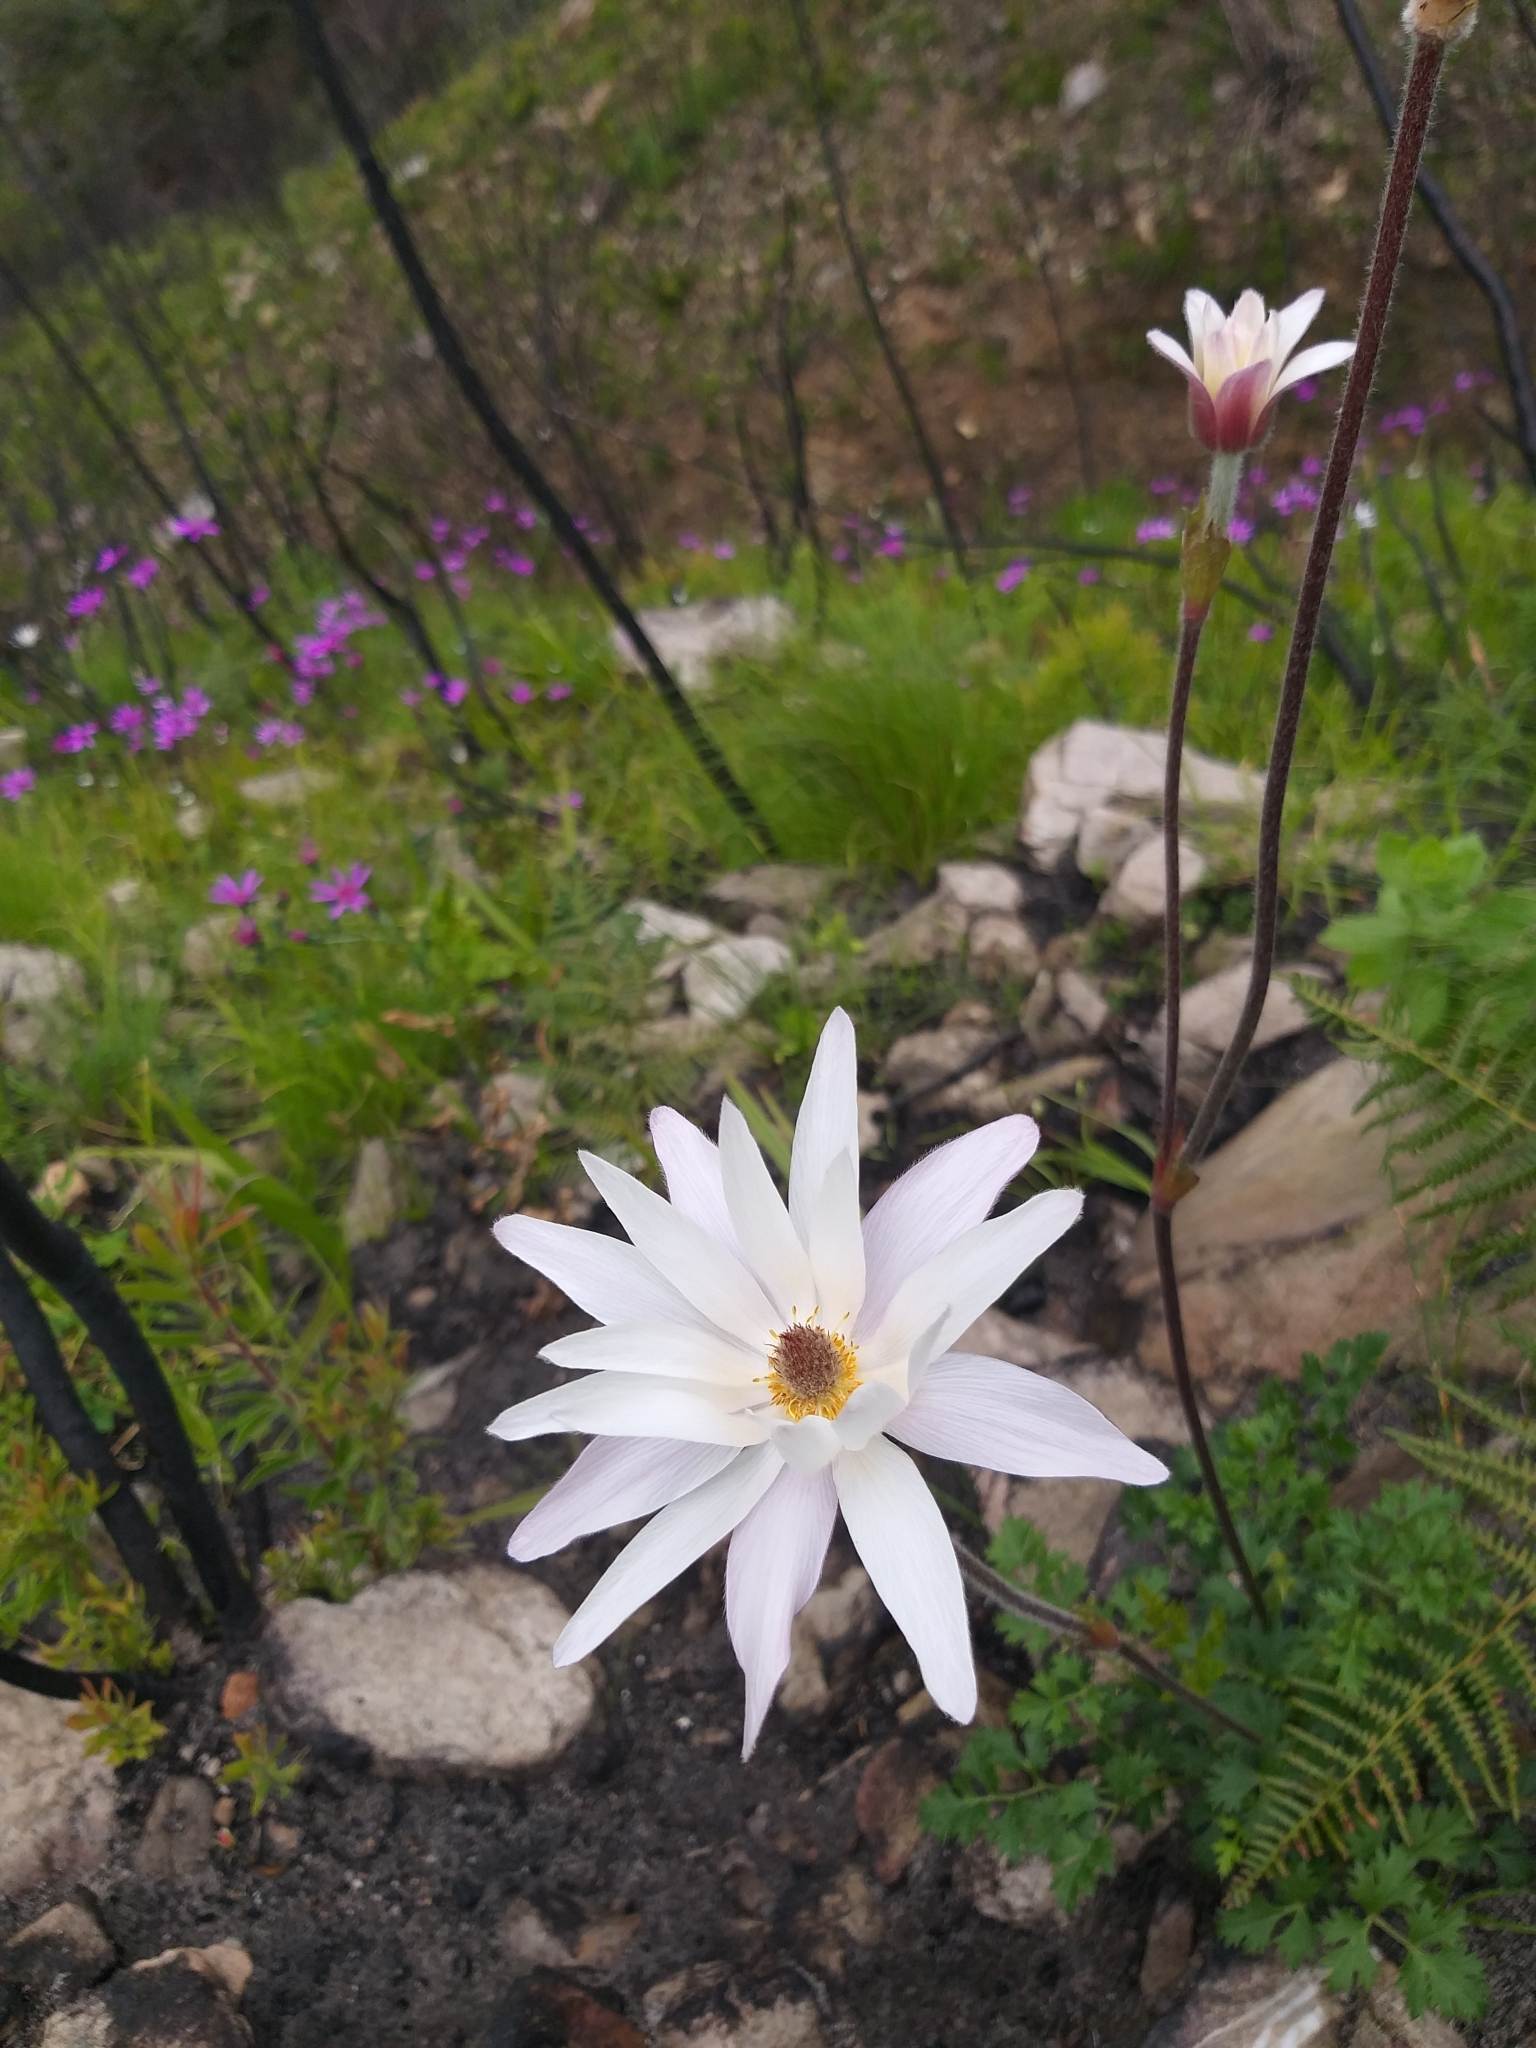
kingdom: Plantae
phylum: Tracheophyta
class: Magnoliopsida
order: Ranunculales
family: Ranunculaceae
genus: Knowltonia
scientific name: Knowltonia tenuifolia
